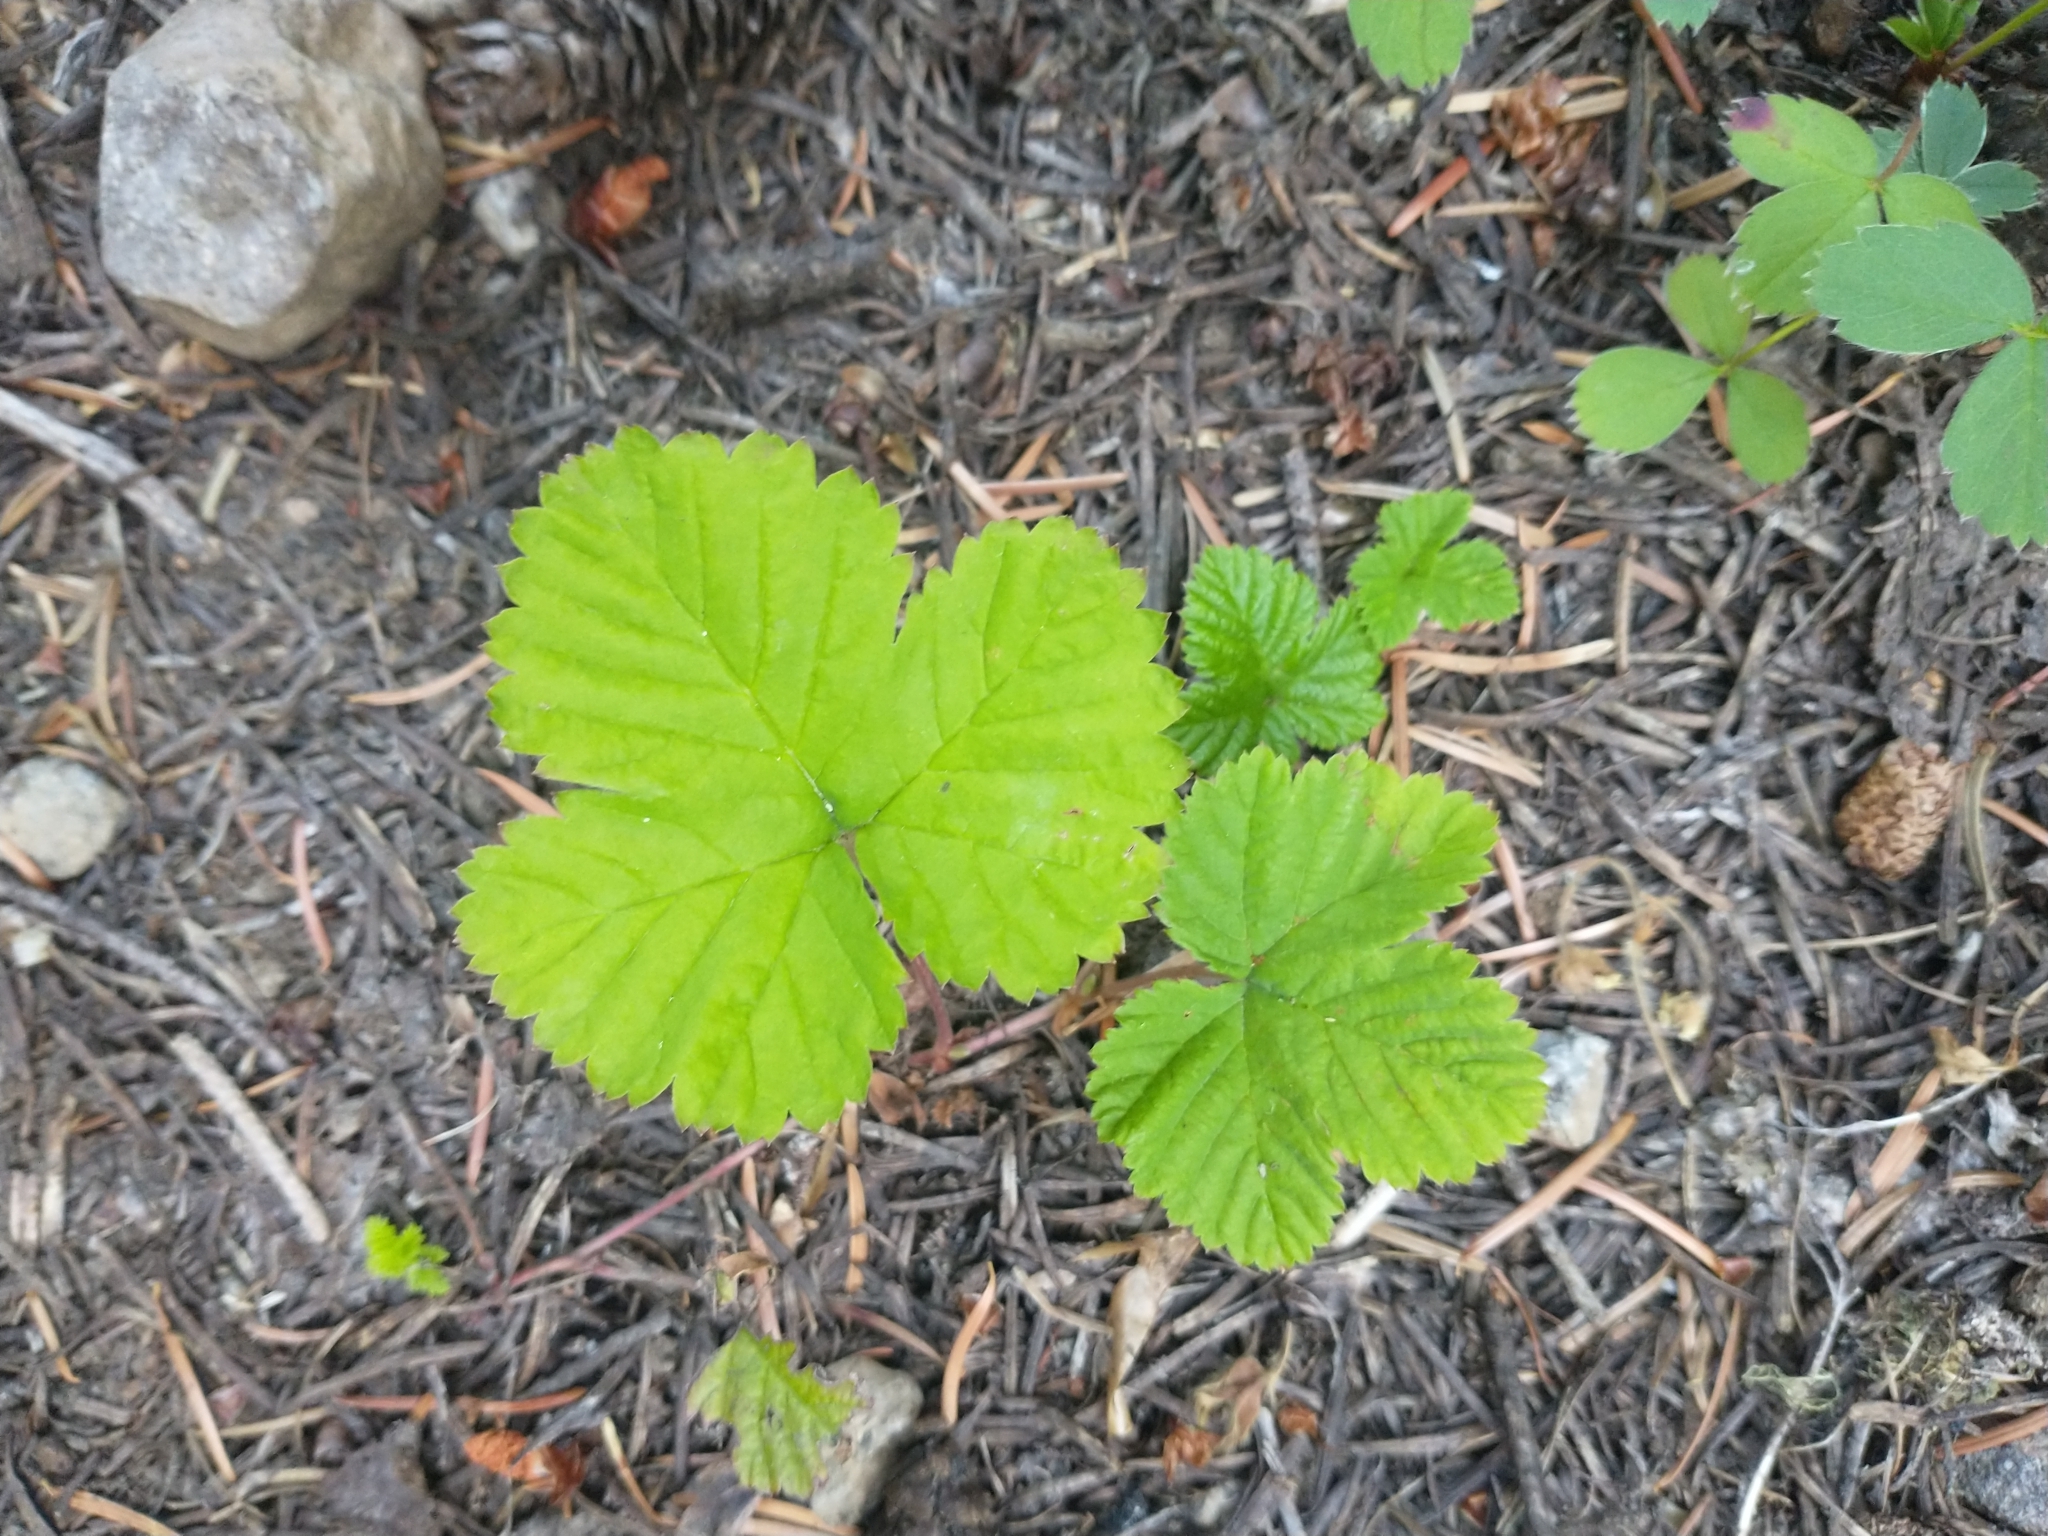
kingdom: Plantae
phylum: Tracheophyta
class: Magnoliopsida
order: Rosales
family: Rosaceae
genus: Rubus
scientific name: Rubus lasiococcus
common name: Dwarf bramble
